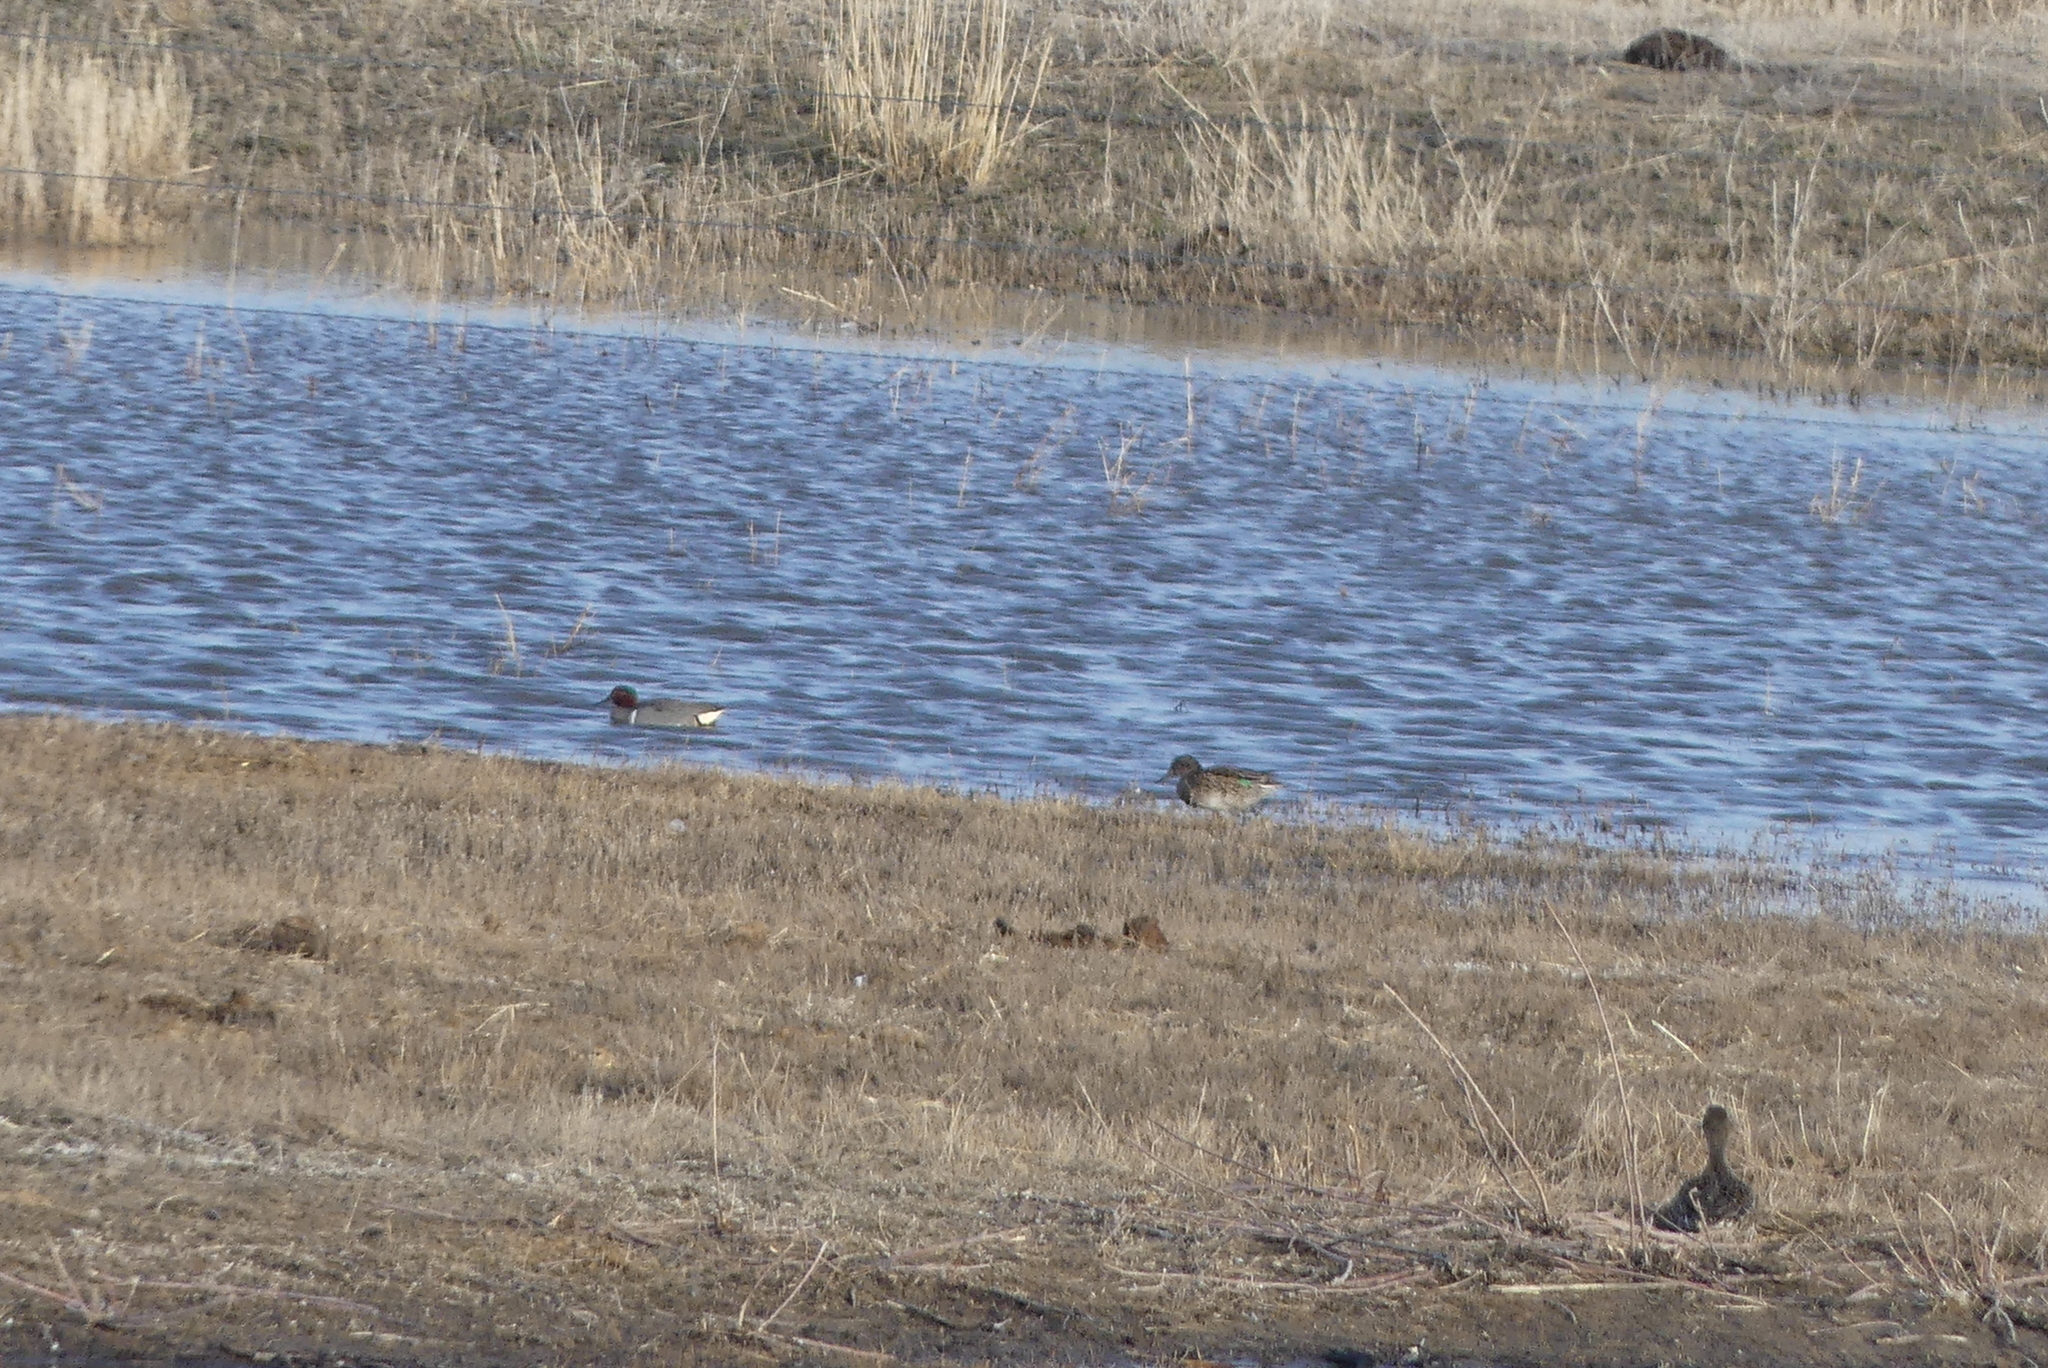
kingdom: Animalia
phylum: Chordata
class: Aves
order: Anseriformes
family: Anatidae
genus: Anas
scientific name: Anas crecca
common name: Eurasian teal
